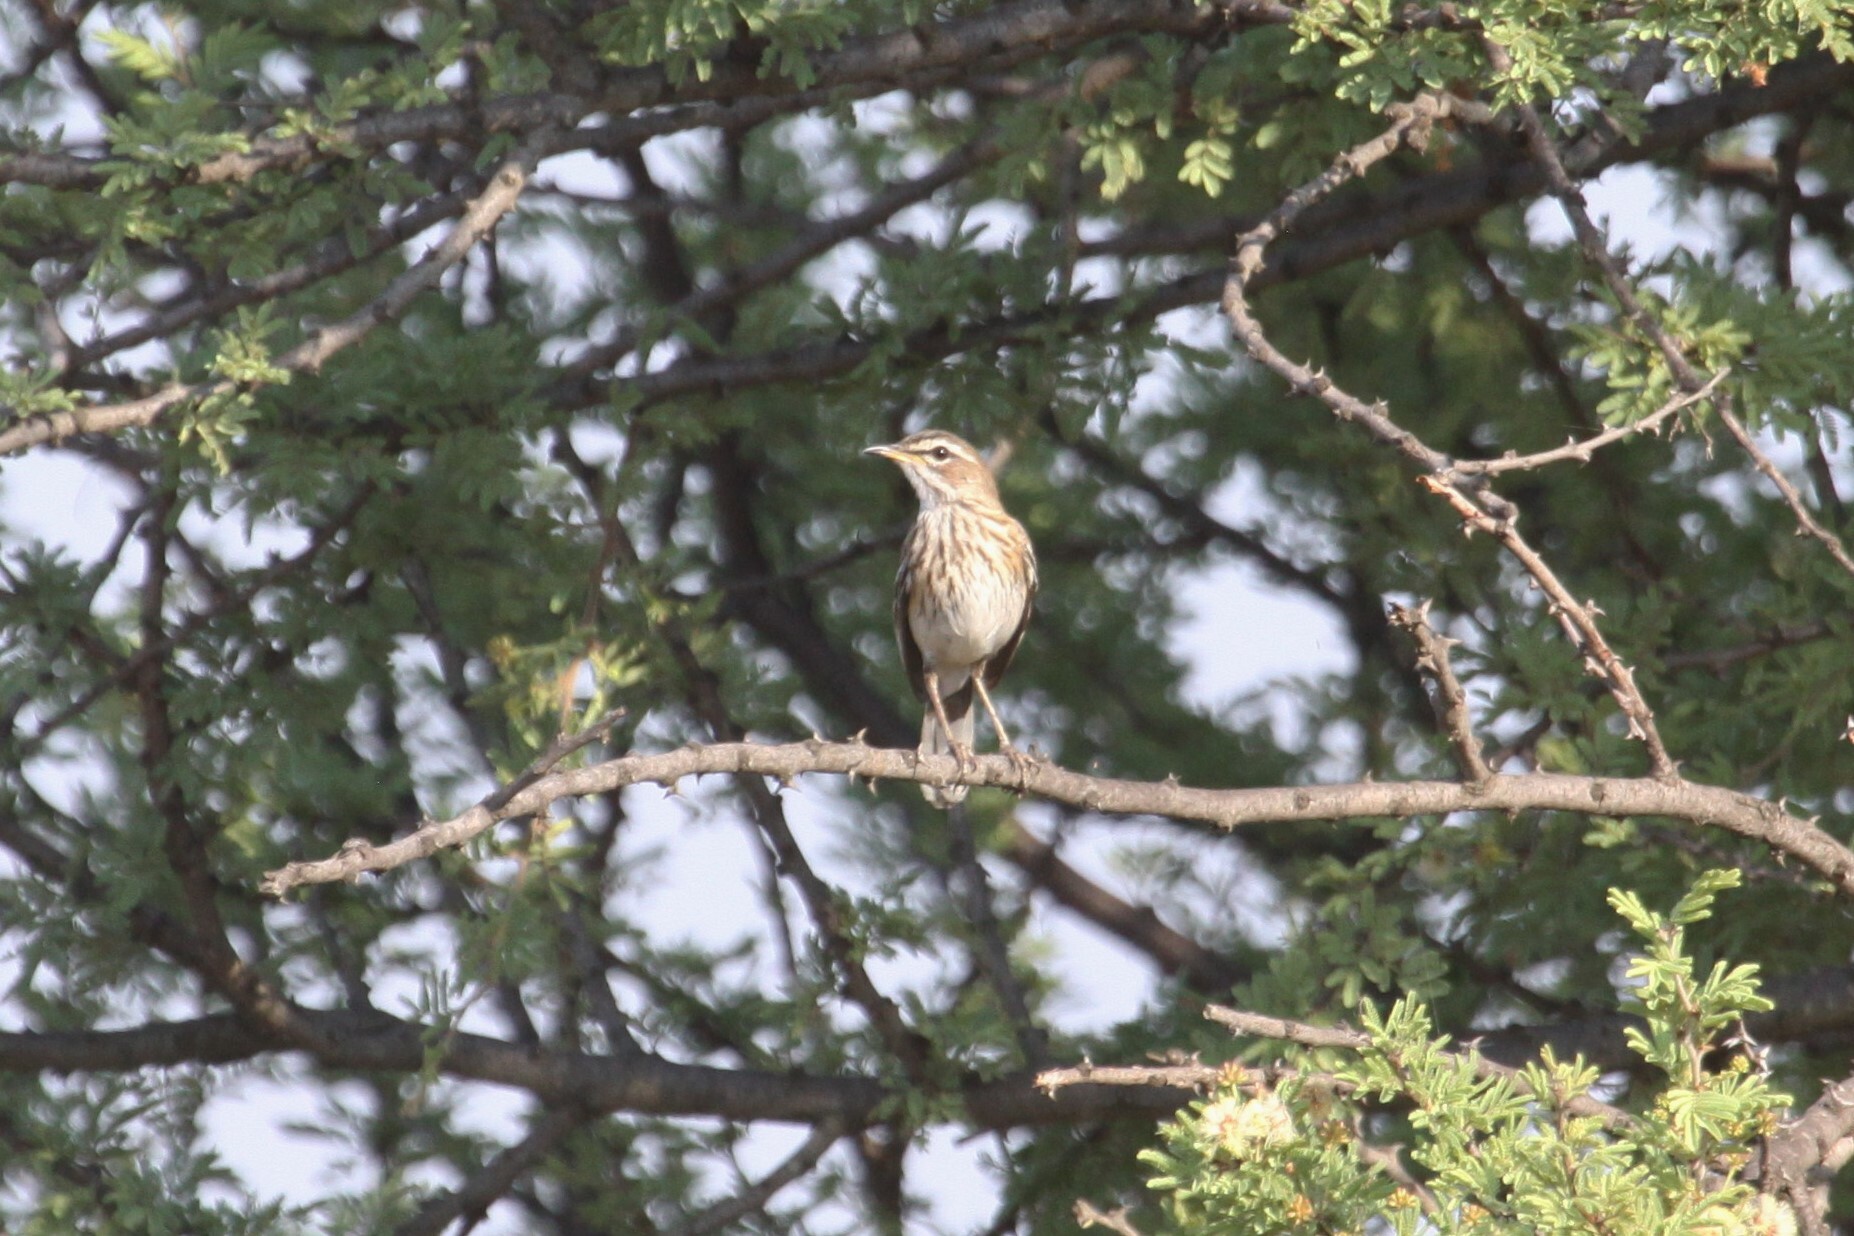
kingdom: Animalia
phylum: Chordata
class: Aves
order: Passeriformes
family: Muscicapidae
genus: Erythropygia
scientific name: Erythropygia leucophrys
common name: White-browed scrub robin
